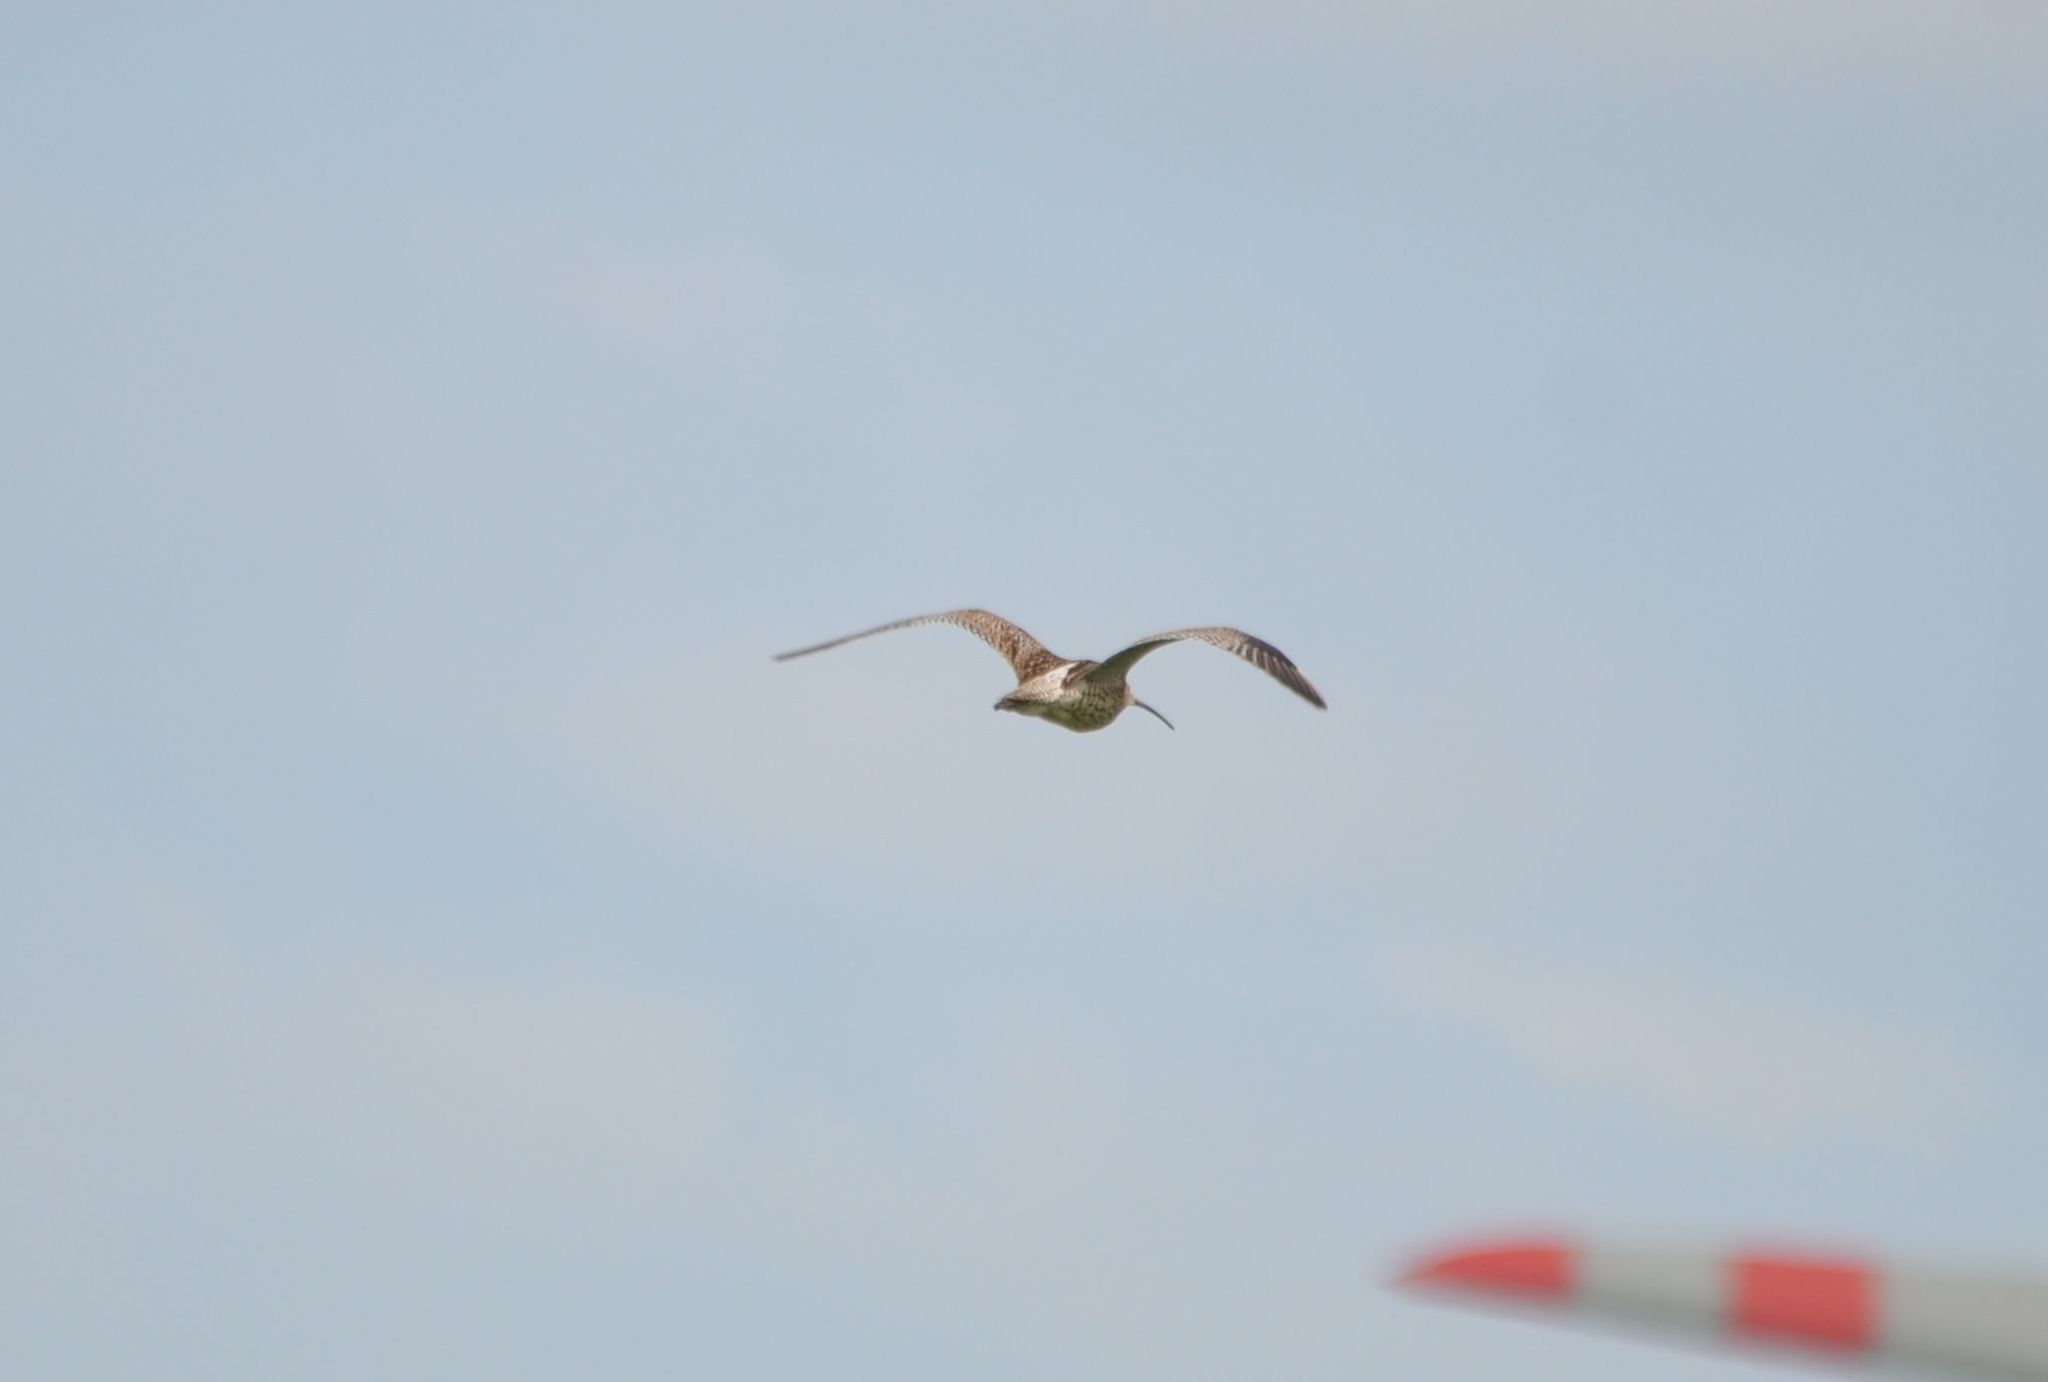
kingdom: Animalia
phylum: Chordata
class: Aves
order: Charadriiformes
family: Scolopacidae
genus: Numenius
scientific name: Numenius arquata
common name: Eurasian curlew
